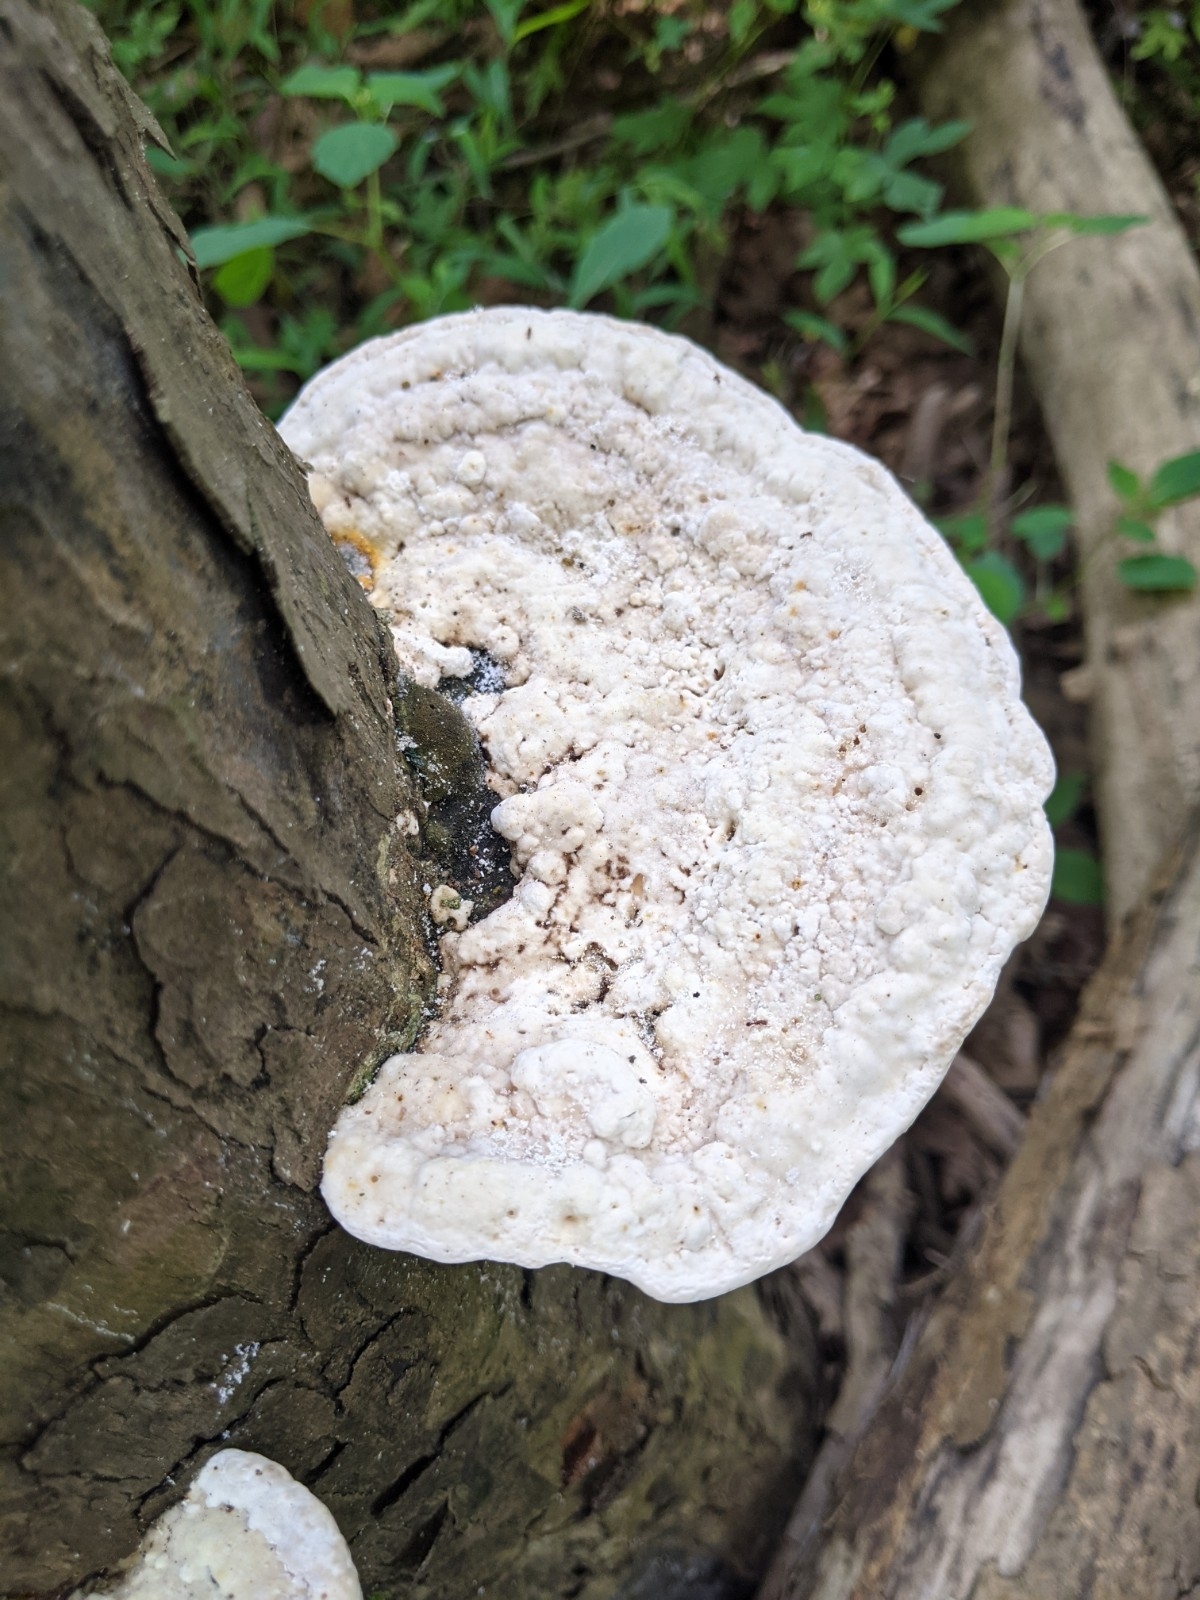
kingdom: Fungi
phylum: Basidiomycota
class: Agaricomycetes
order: Polyporales
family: Polyporaceae
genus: Trametes
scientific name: Trametes gibbosa
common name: Lumpy bracket
